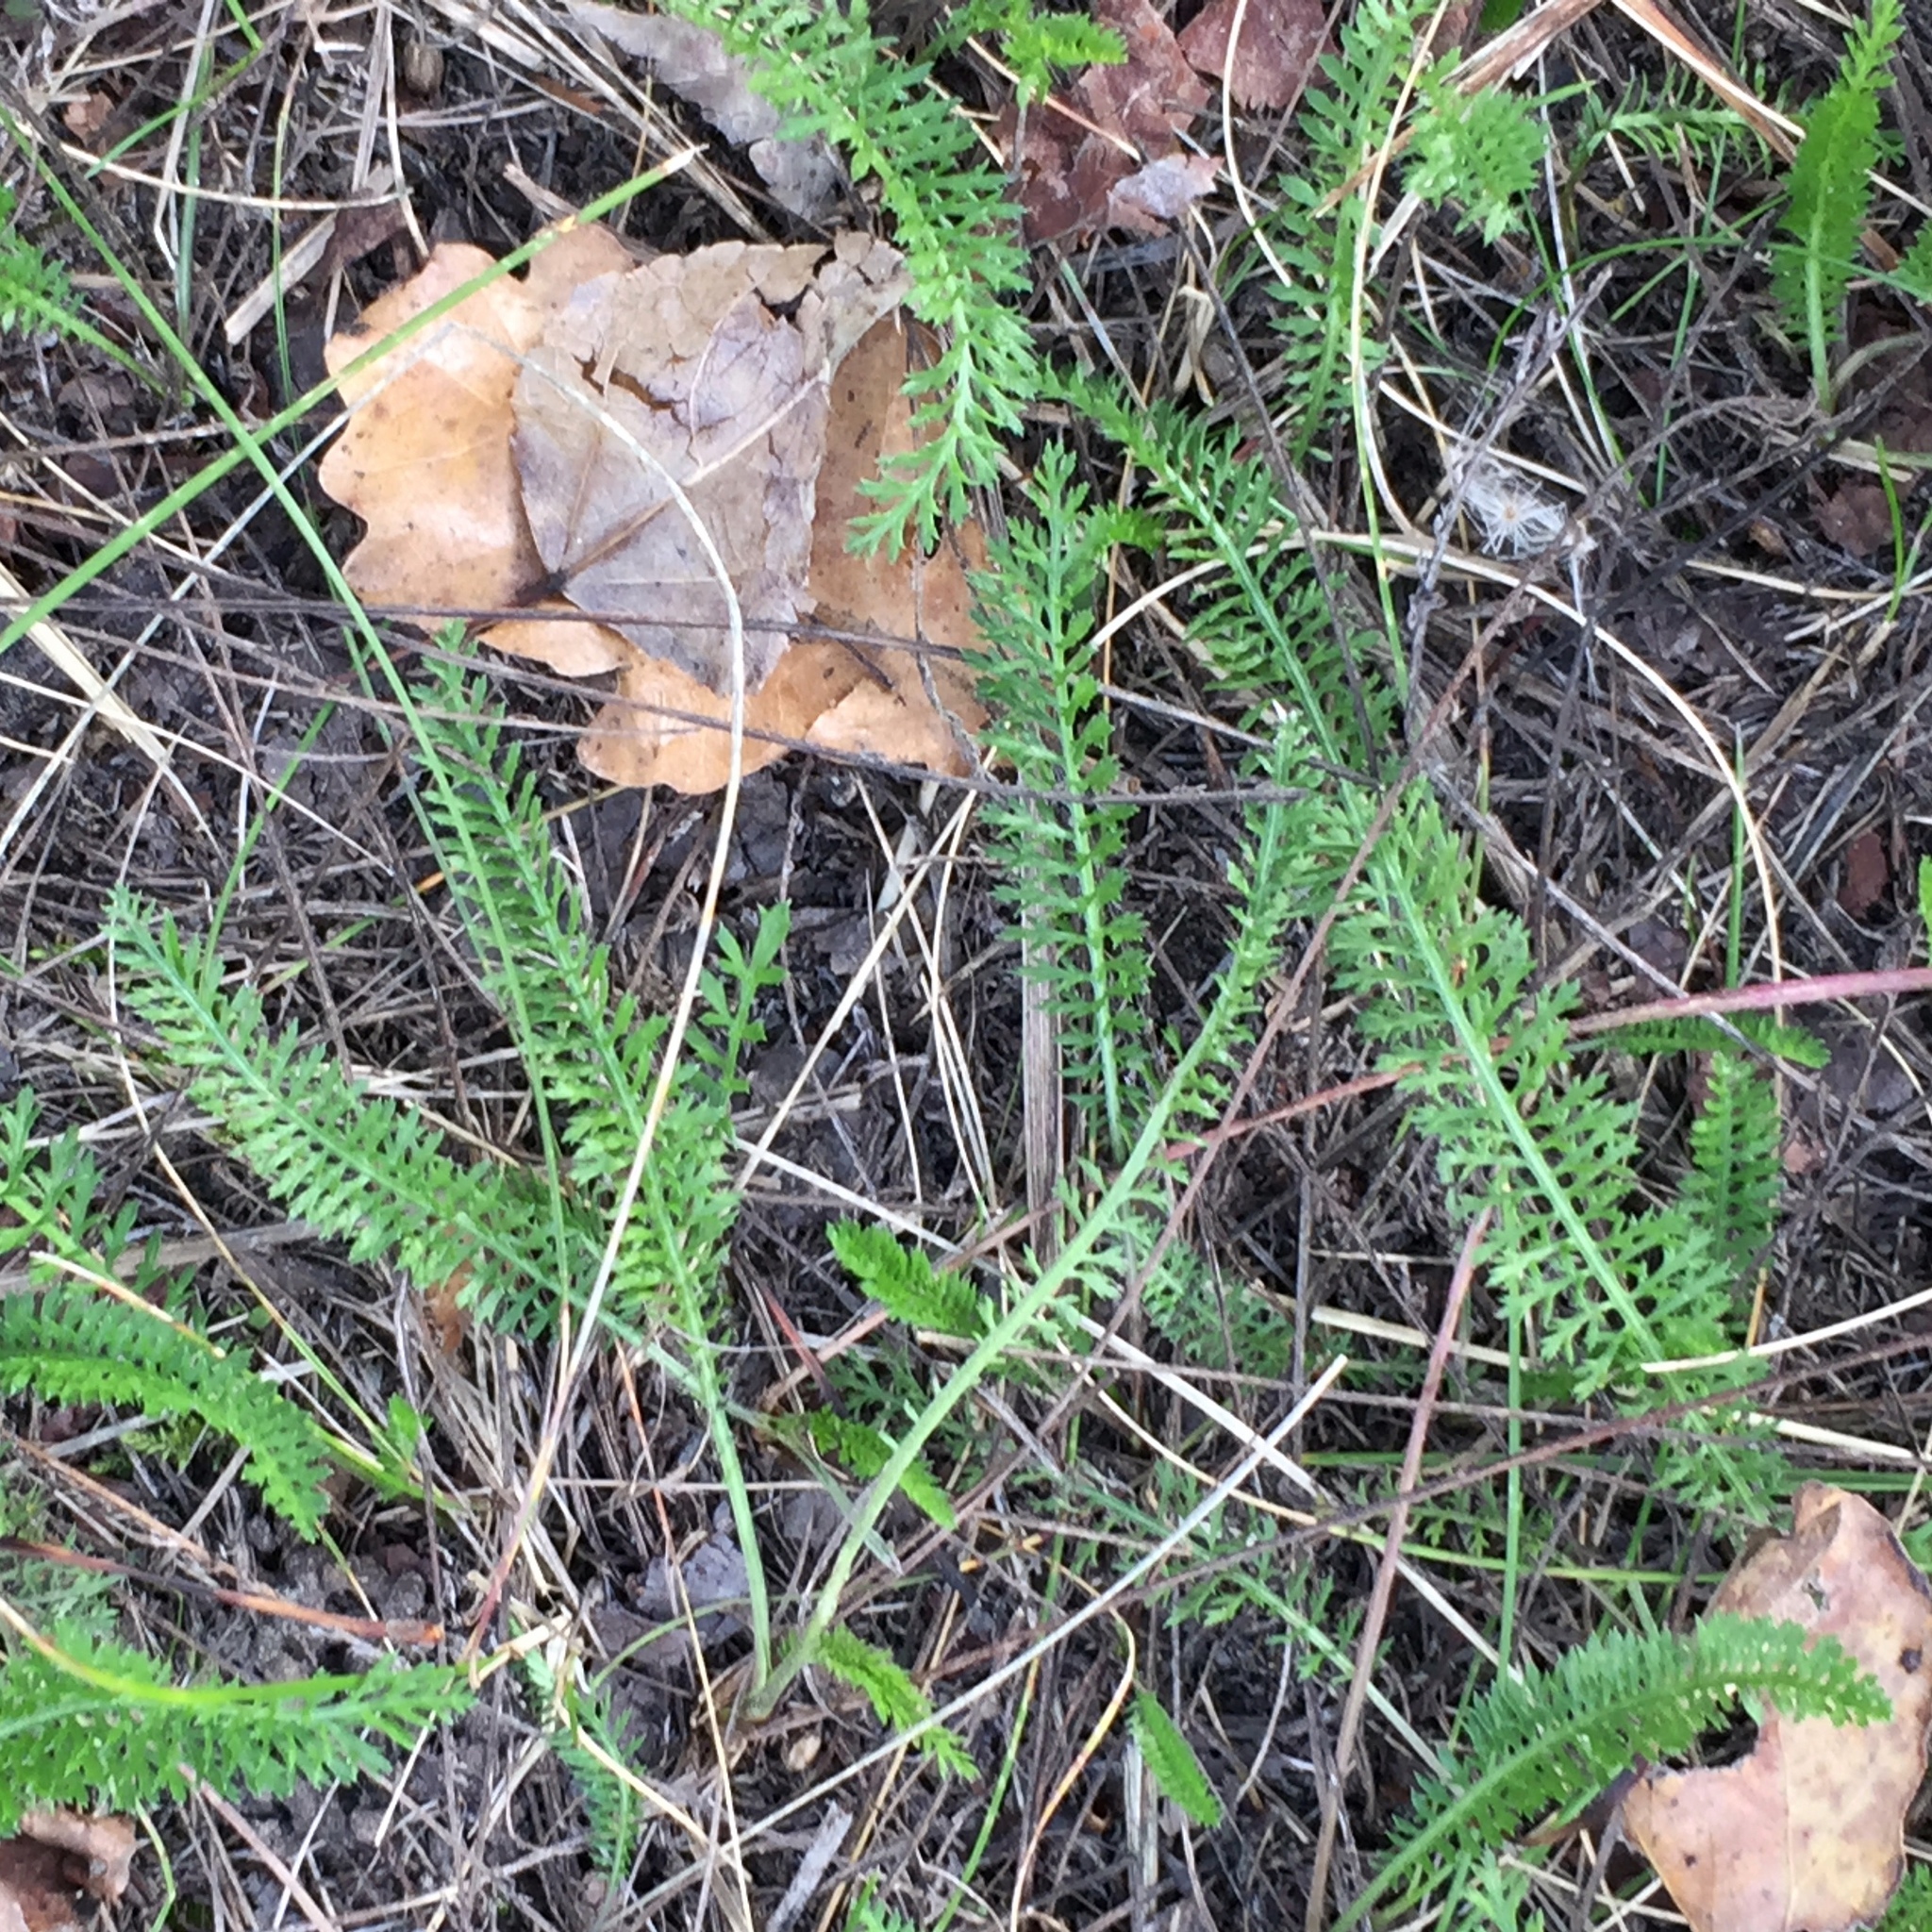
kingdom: Plantae
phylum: Tracheophyta
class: Magnoliopsida
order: Asterales
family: Asteraceae
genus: Achillea
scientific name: Achillea millefolium
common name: Yarrow
